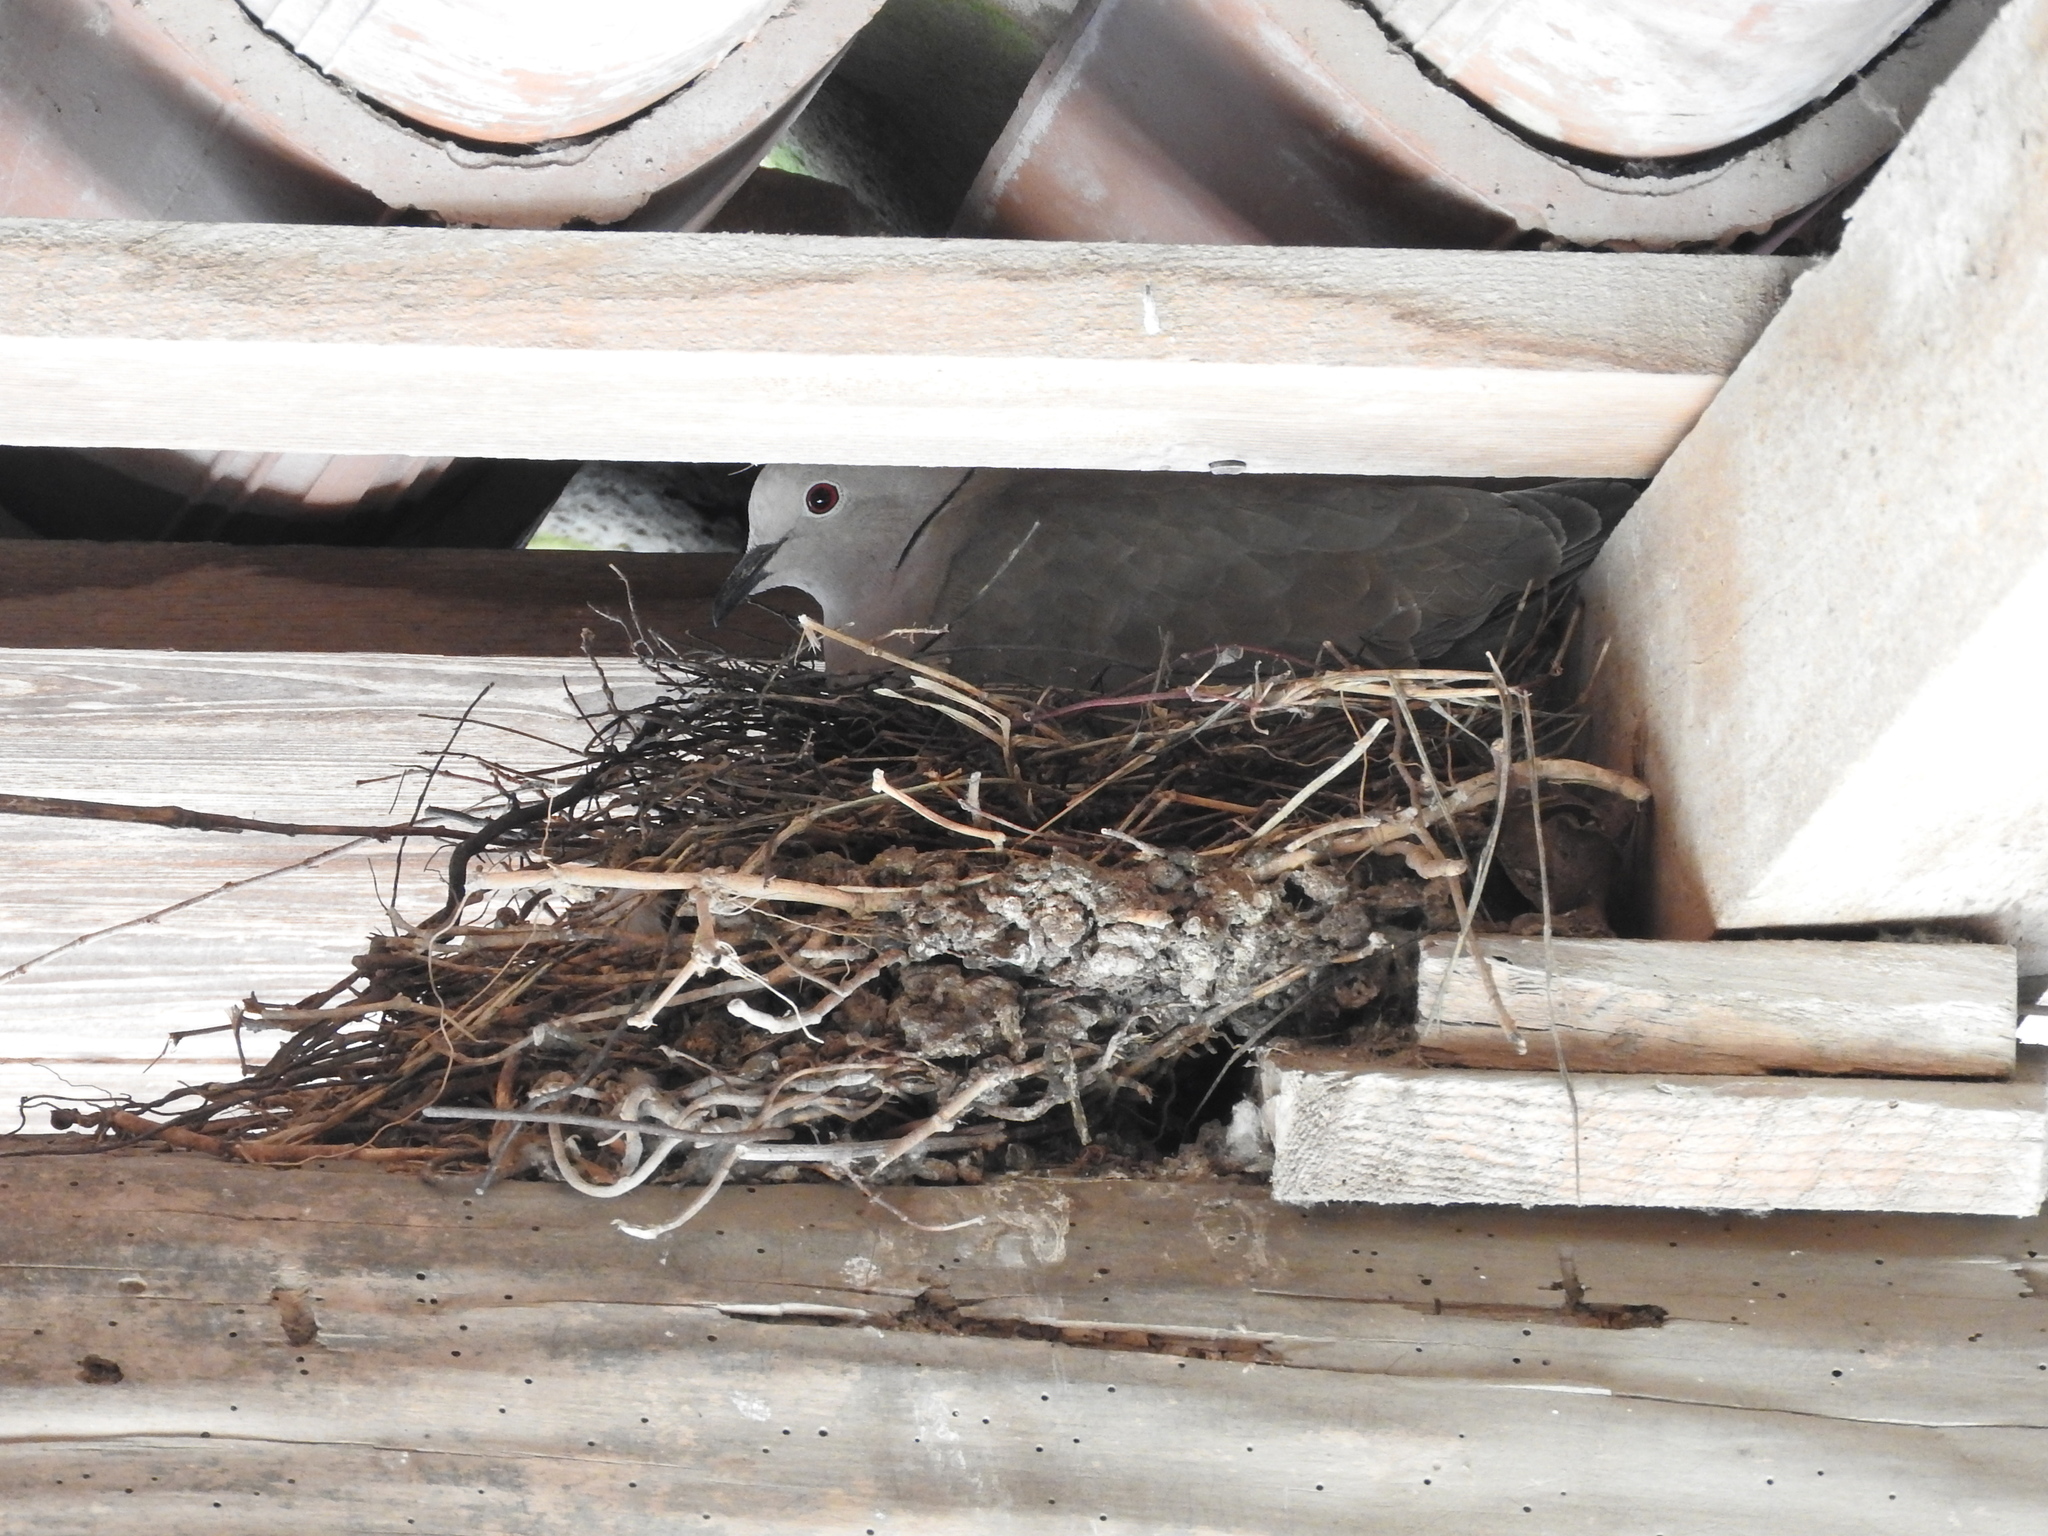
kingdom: Animalia
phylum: Chordata
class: Aves
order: Columbiformes
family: Columbidae
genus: Streptopelia
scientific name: Streptopelia decaocto
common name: Eurasian collared dove
